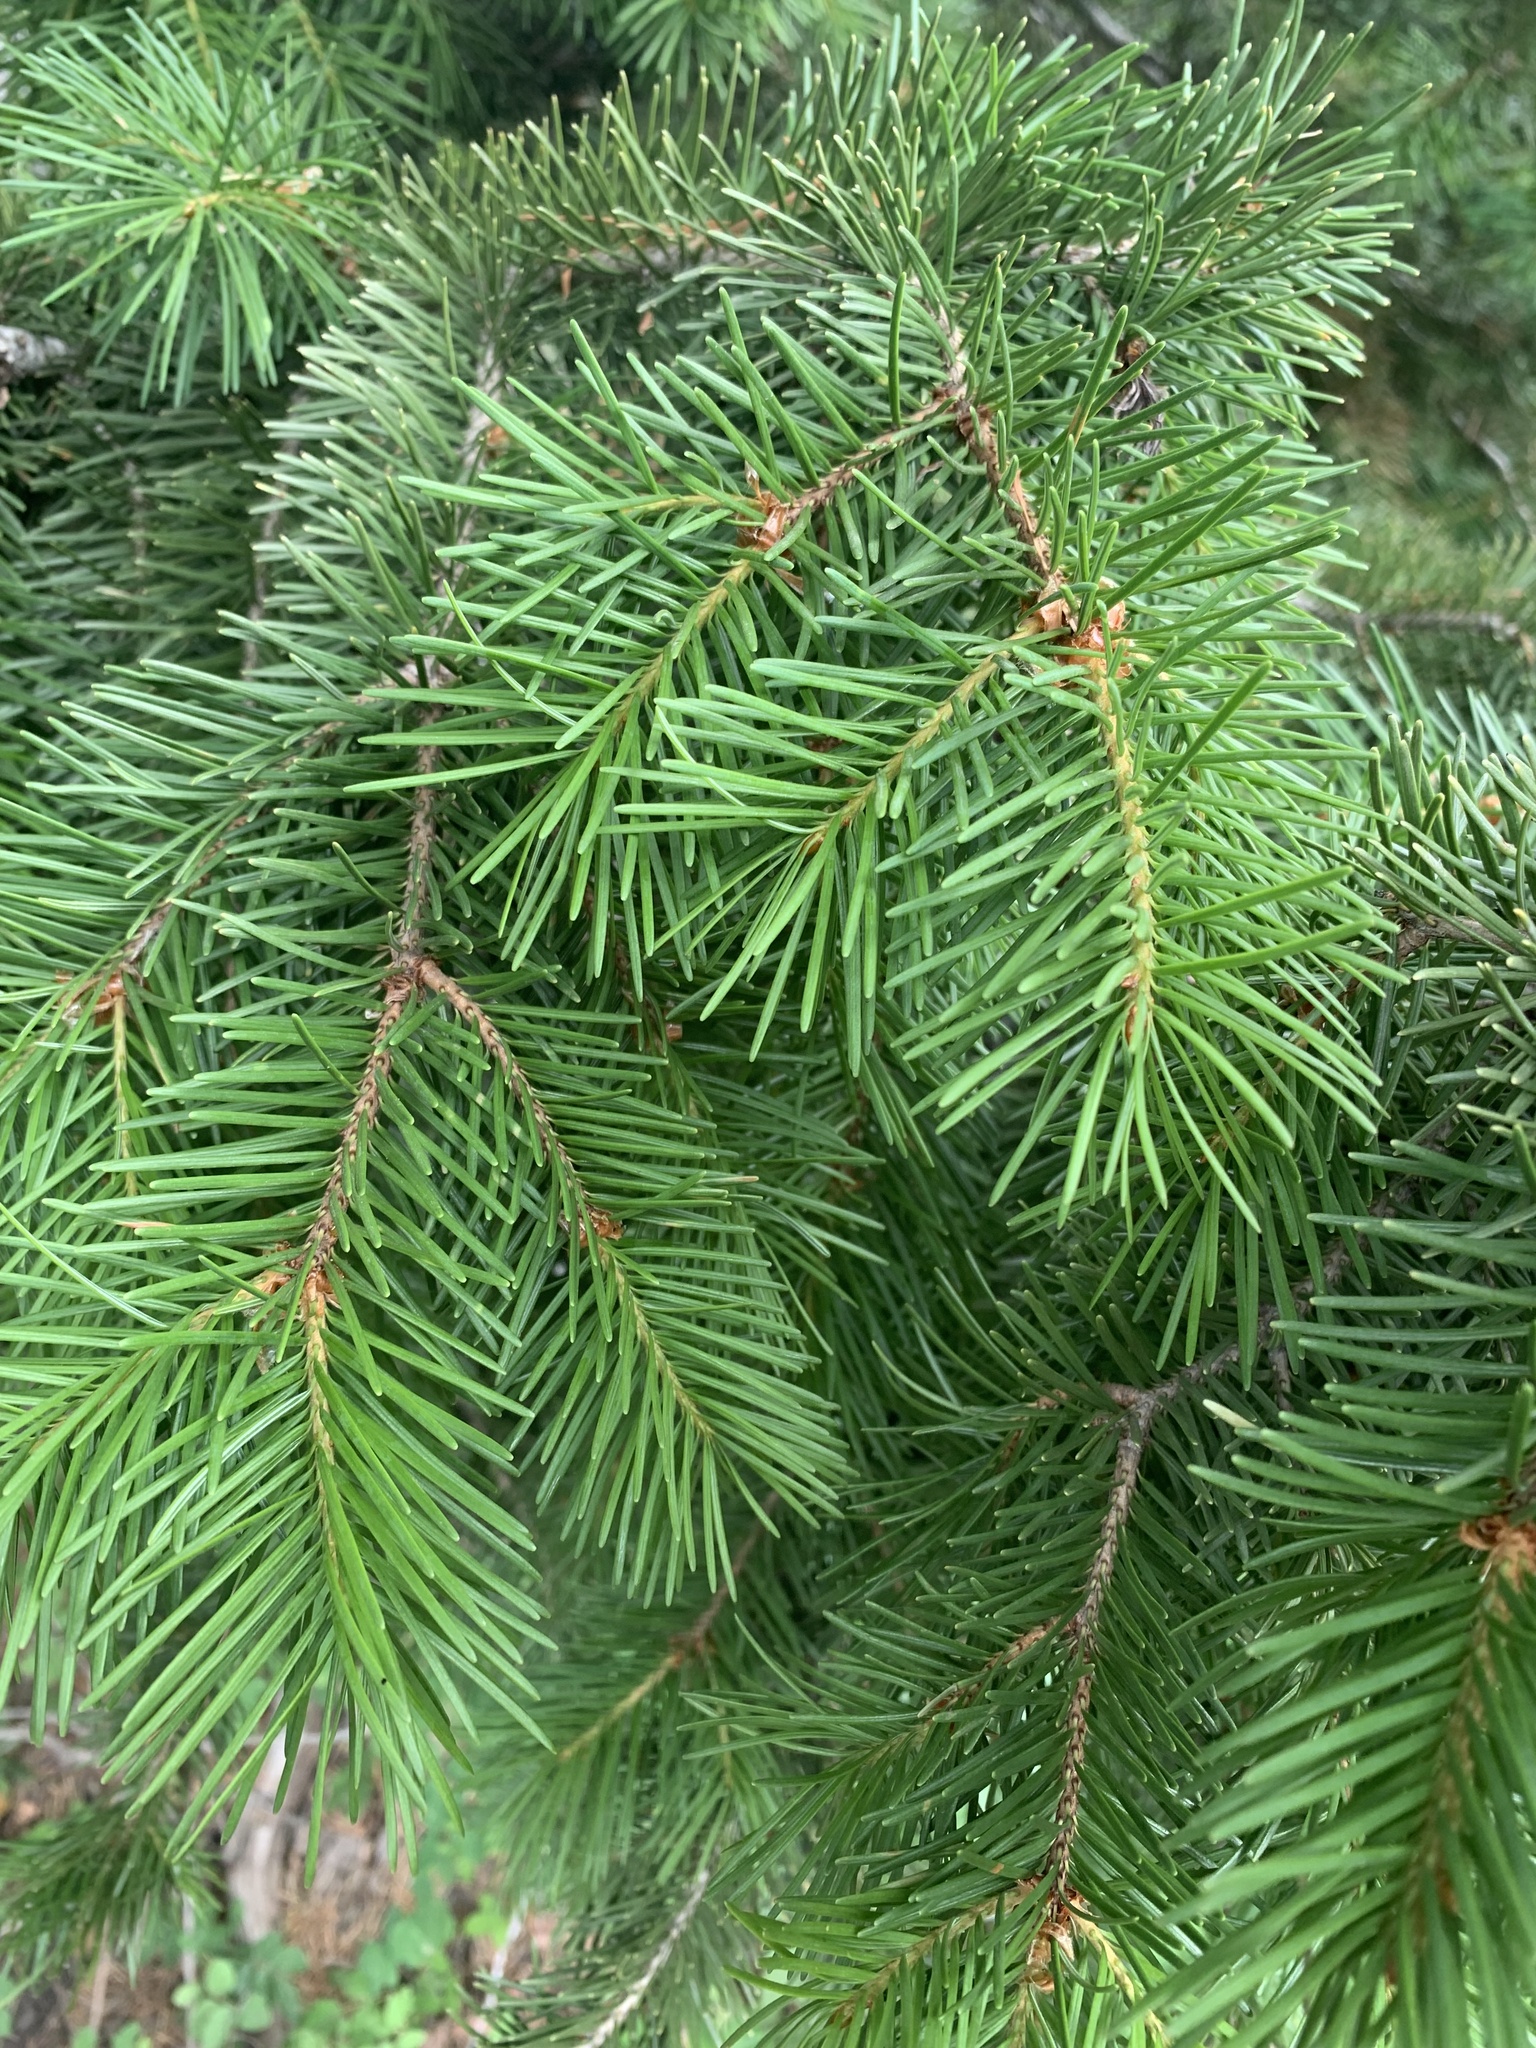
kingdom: Plantae
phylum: Tracheophyta
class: Pinopsida
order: Pinales
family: Pinaceae
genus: Pseudotsuga
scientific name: Pseudotsuga menziesii
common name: Douglas fir
